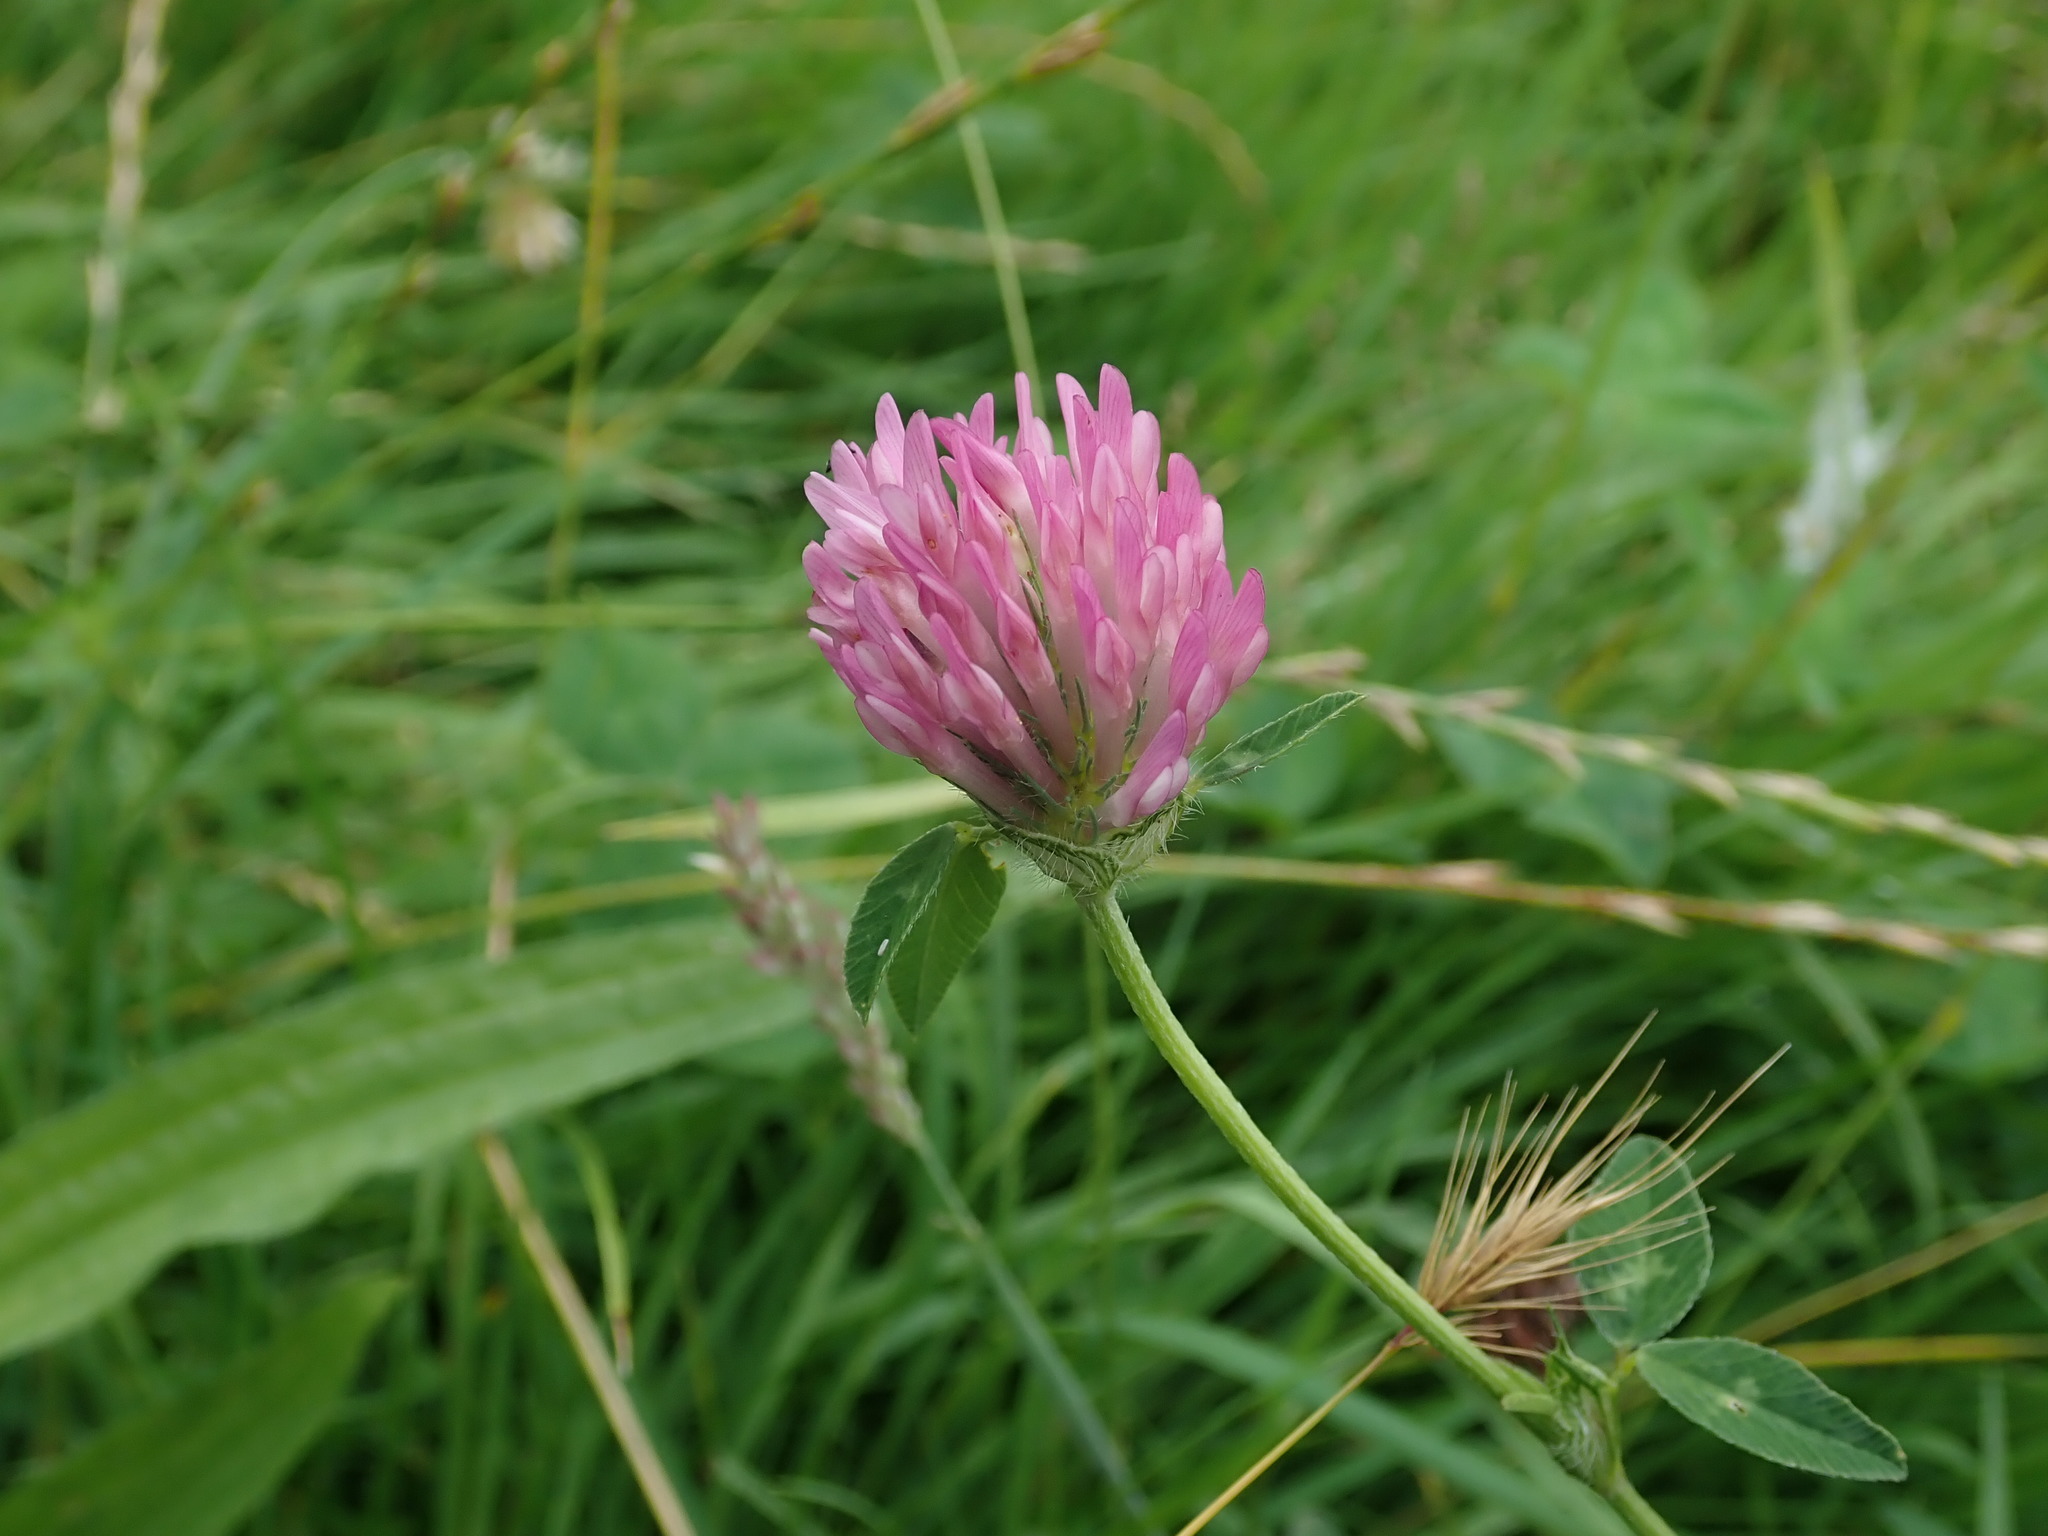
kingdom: Plantae
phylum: Tracheophyta
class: Magnoliopsida
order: Fabales
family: Fabaceae
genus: Trifolium
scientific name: Trifolium pratense
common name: Red clover
